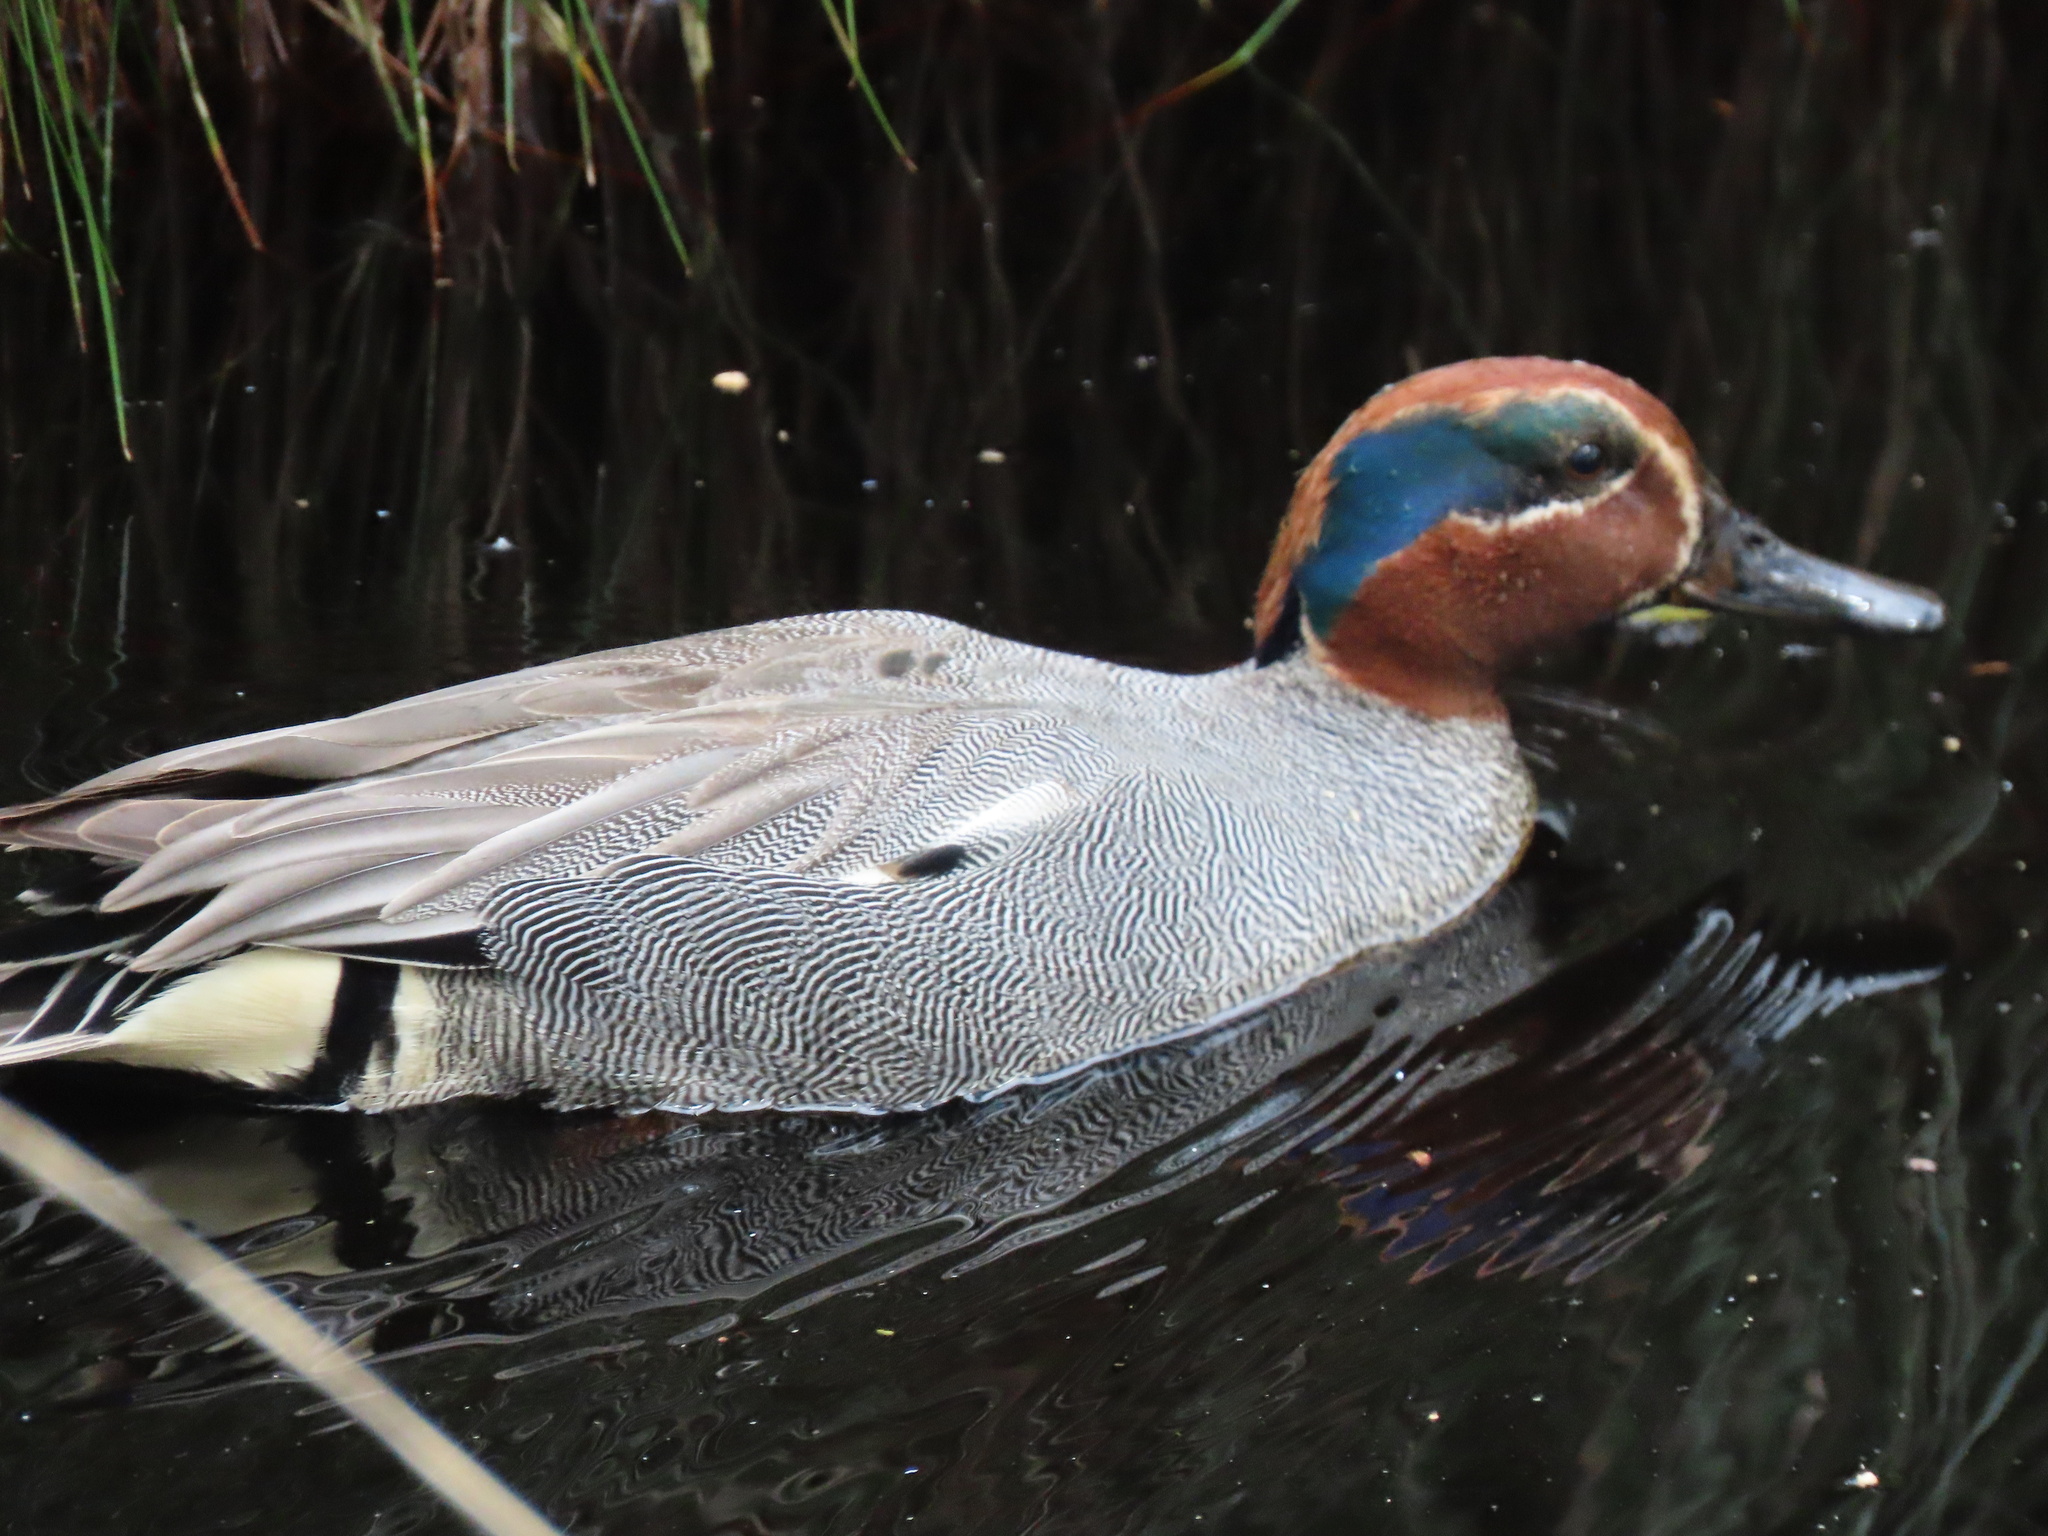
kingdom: Animalia
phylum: Chordata
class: Aves
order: Anseriformes
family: Anatidae
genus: Anas
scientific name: Anas crecca
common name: Eurasian teal
